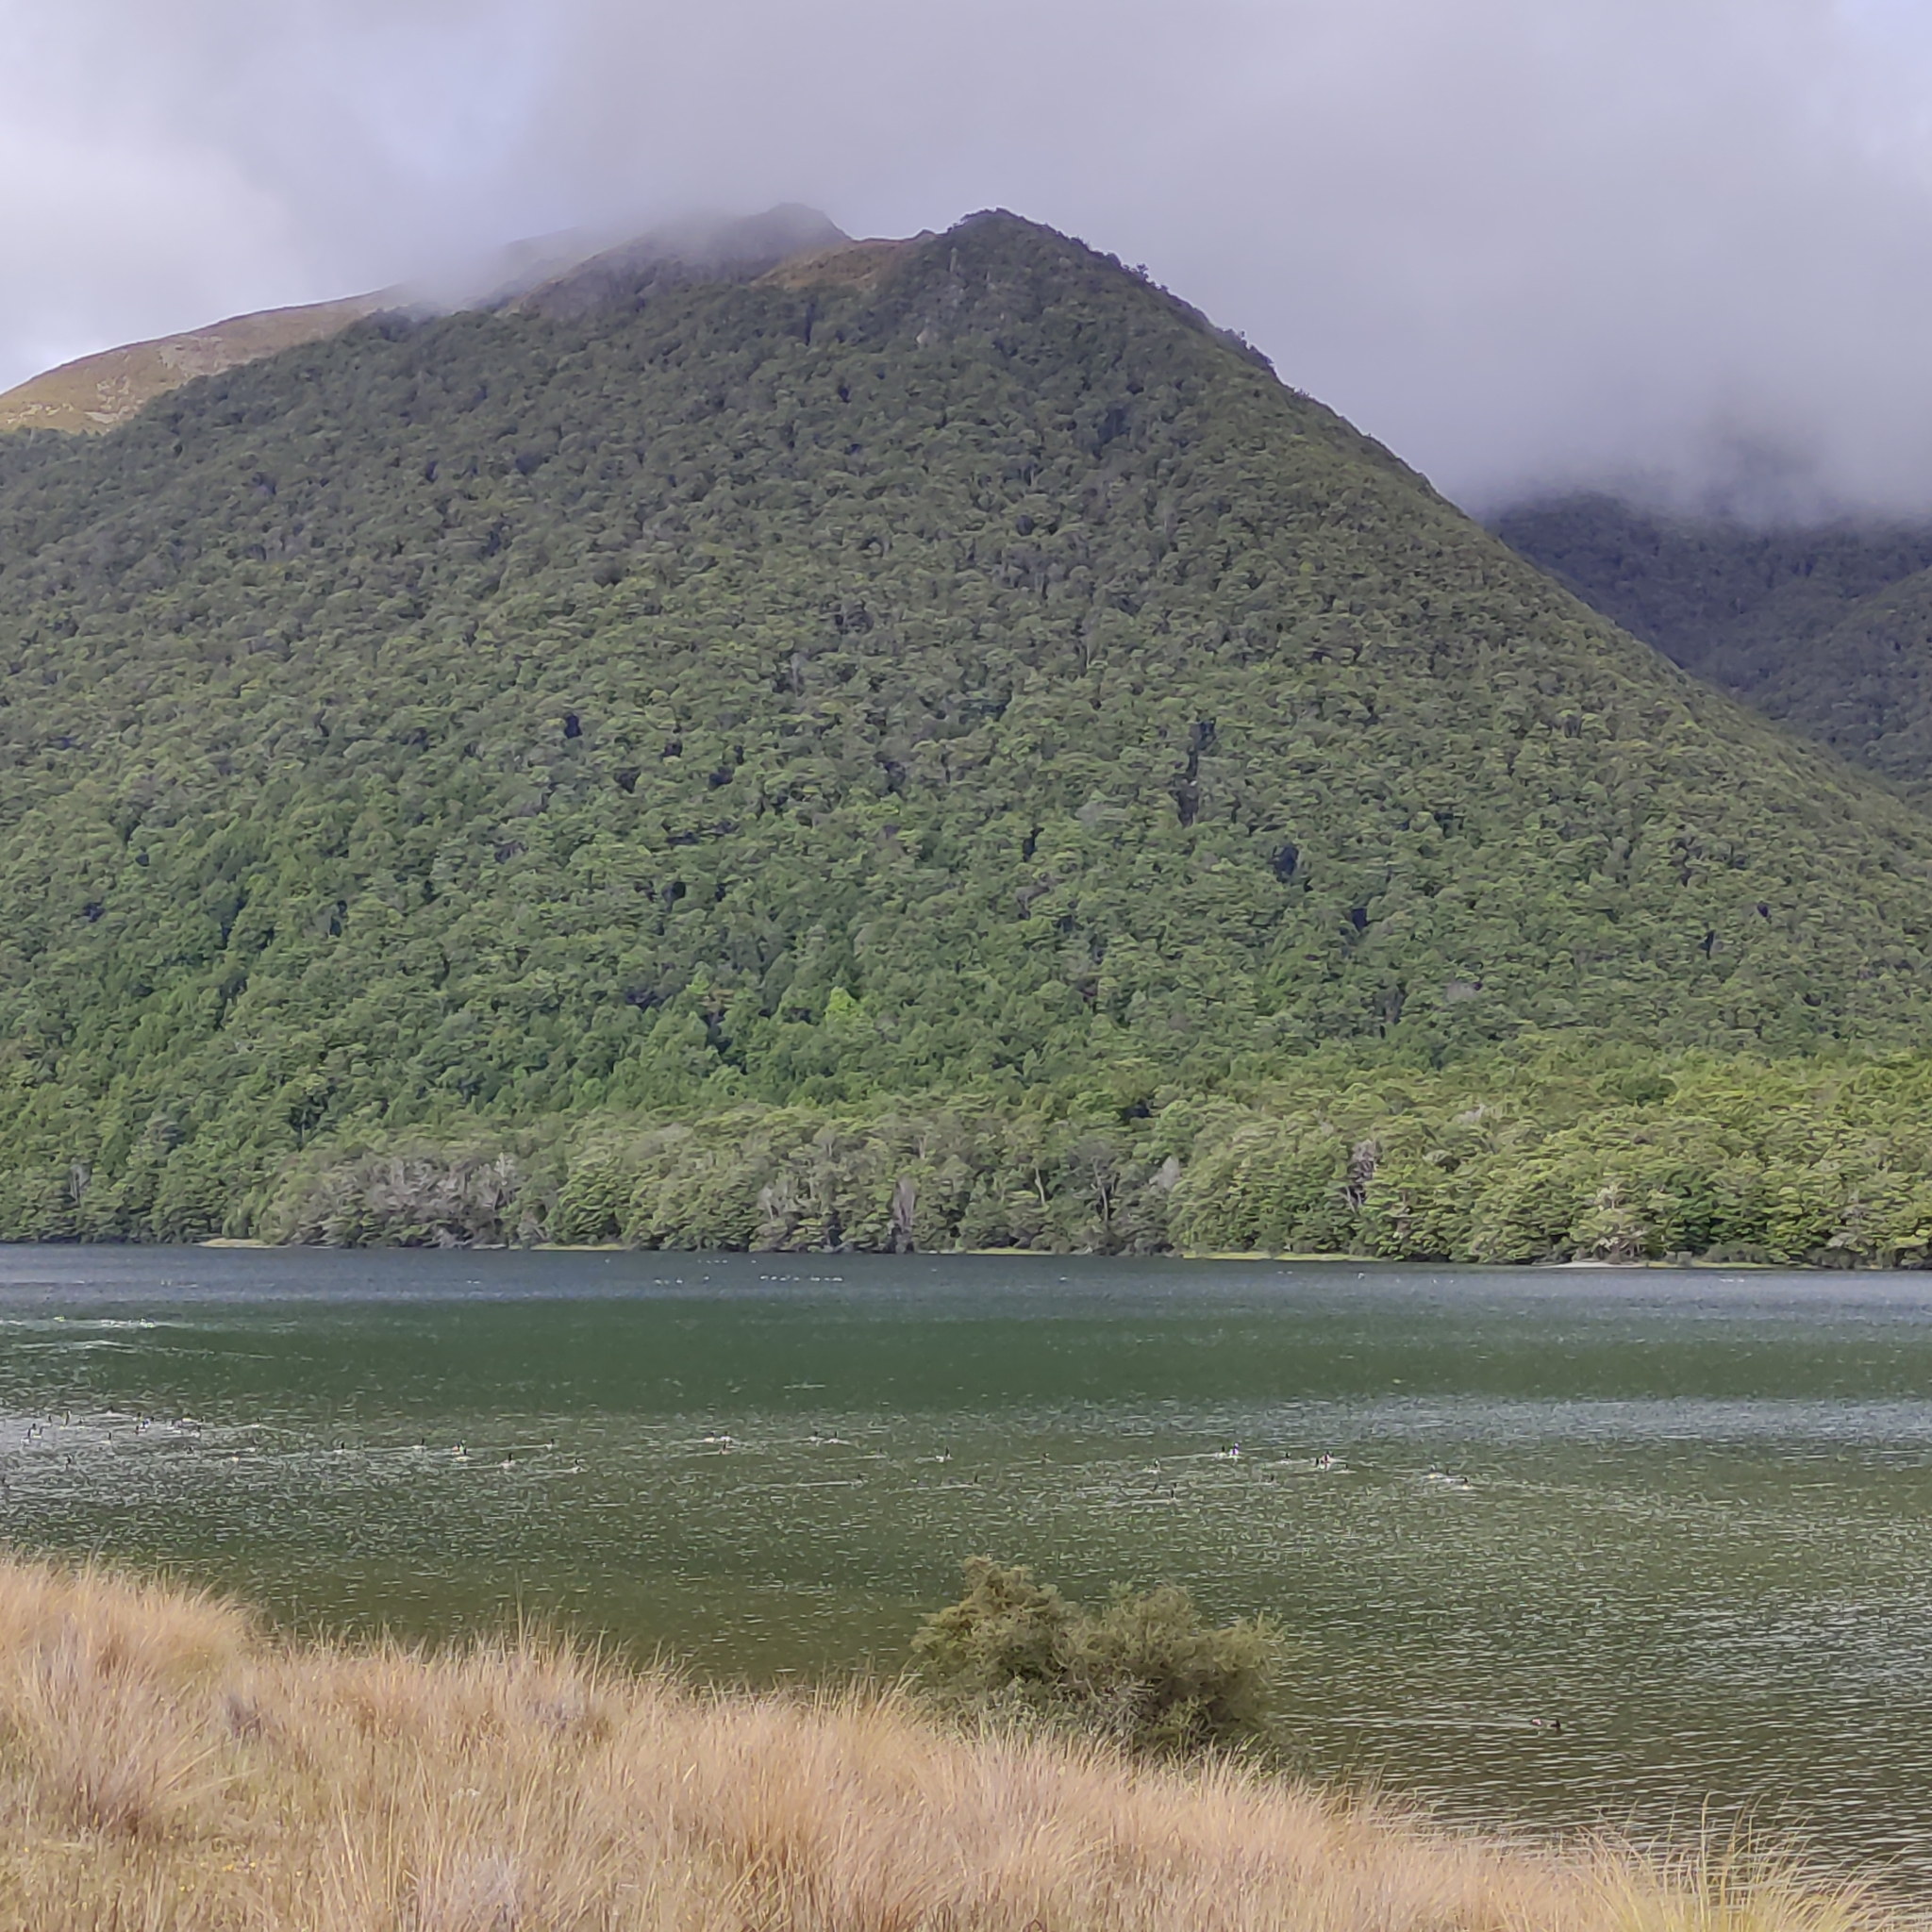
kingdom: Animalia
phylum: Chordata
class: Aves
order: Anseriformes
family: Anatidae
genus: Branta
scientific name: Branta canadensis
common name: Canada goose
